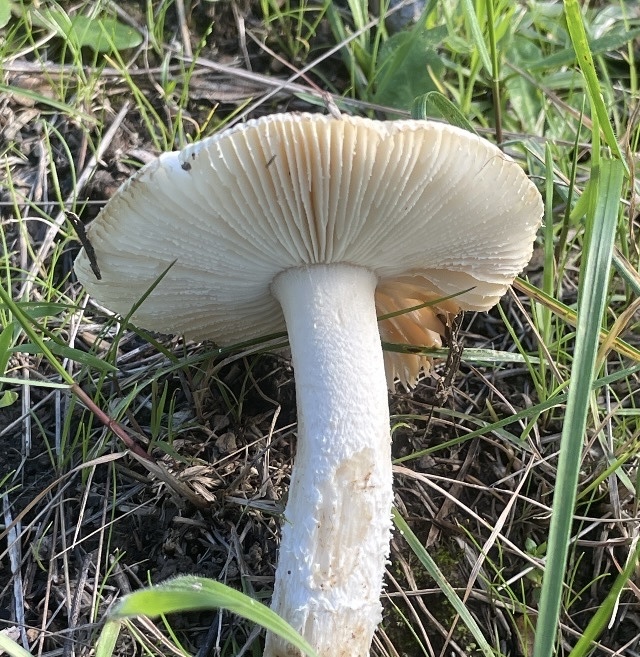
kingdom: Fungi
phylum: Basidiomycota
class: Agaricomycetes
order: Agaricales
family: Amanitaceae
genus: Amanita
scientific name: Amanita velosa
